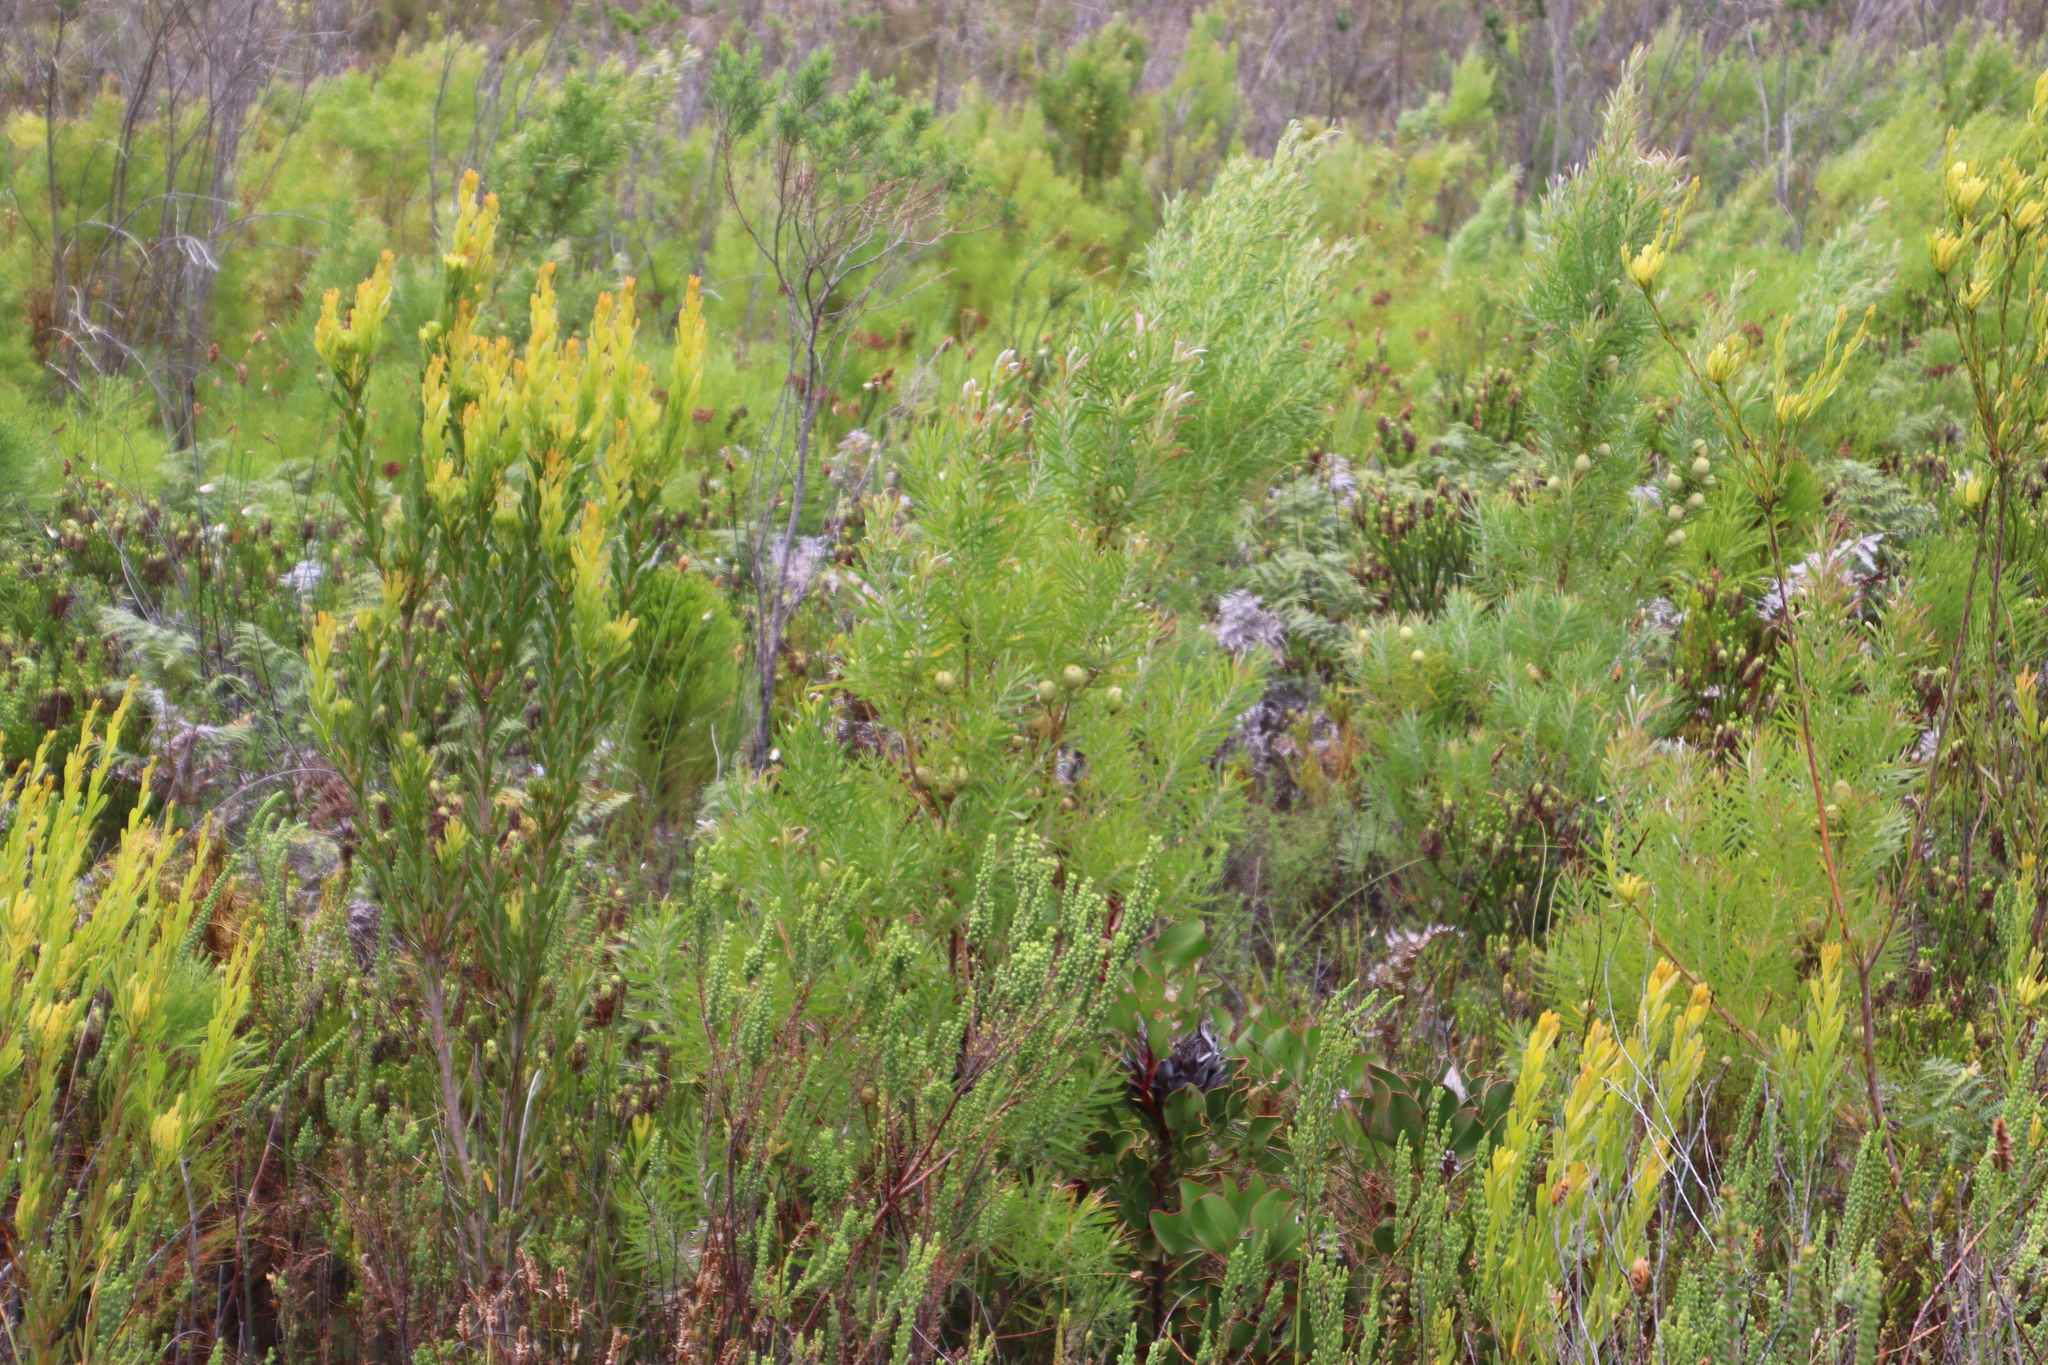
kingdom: Plantae
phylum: Tracheophyta
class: Magnoliopsida
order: Proteales
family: Proteaceae
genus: Leucadendron
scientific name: Leucadendron salicifolium
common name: Common stream conebush
